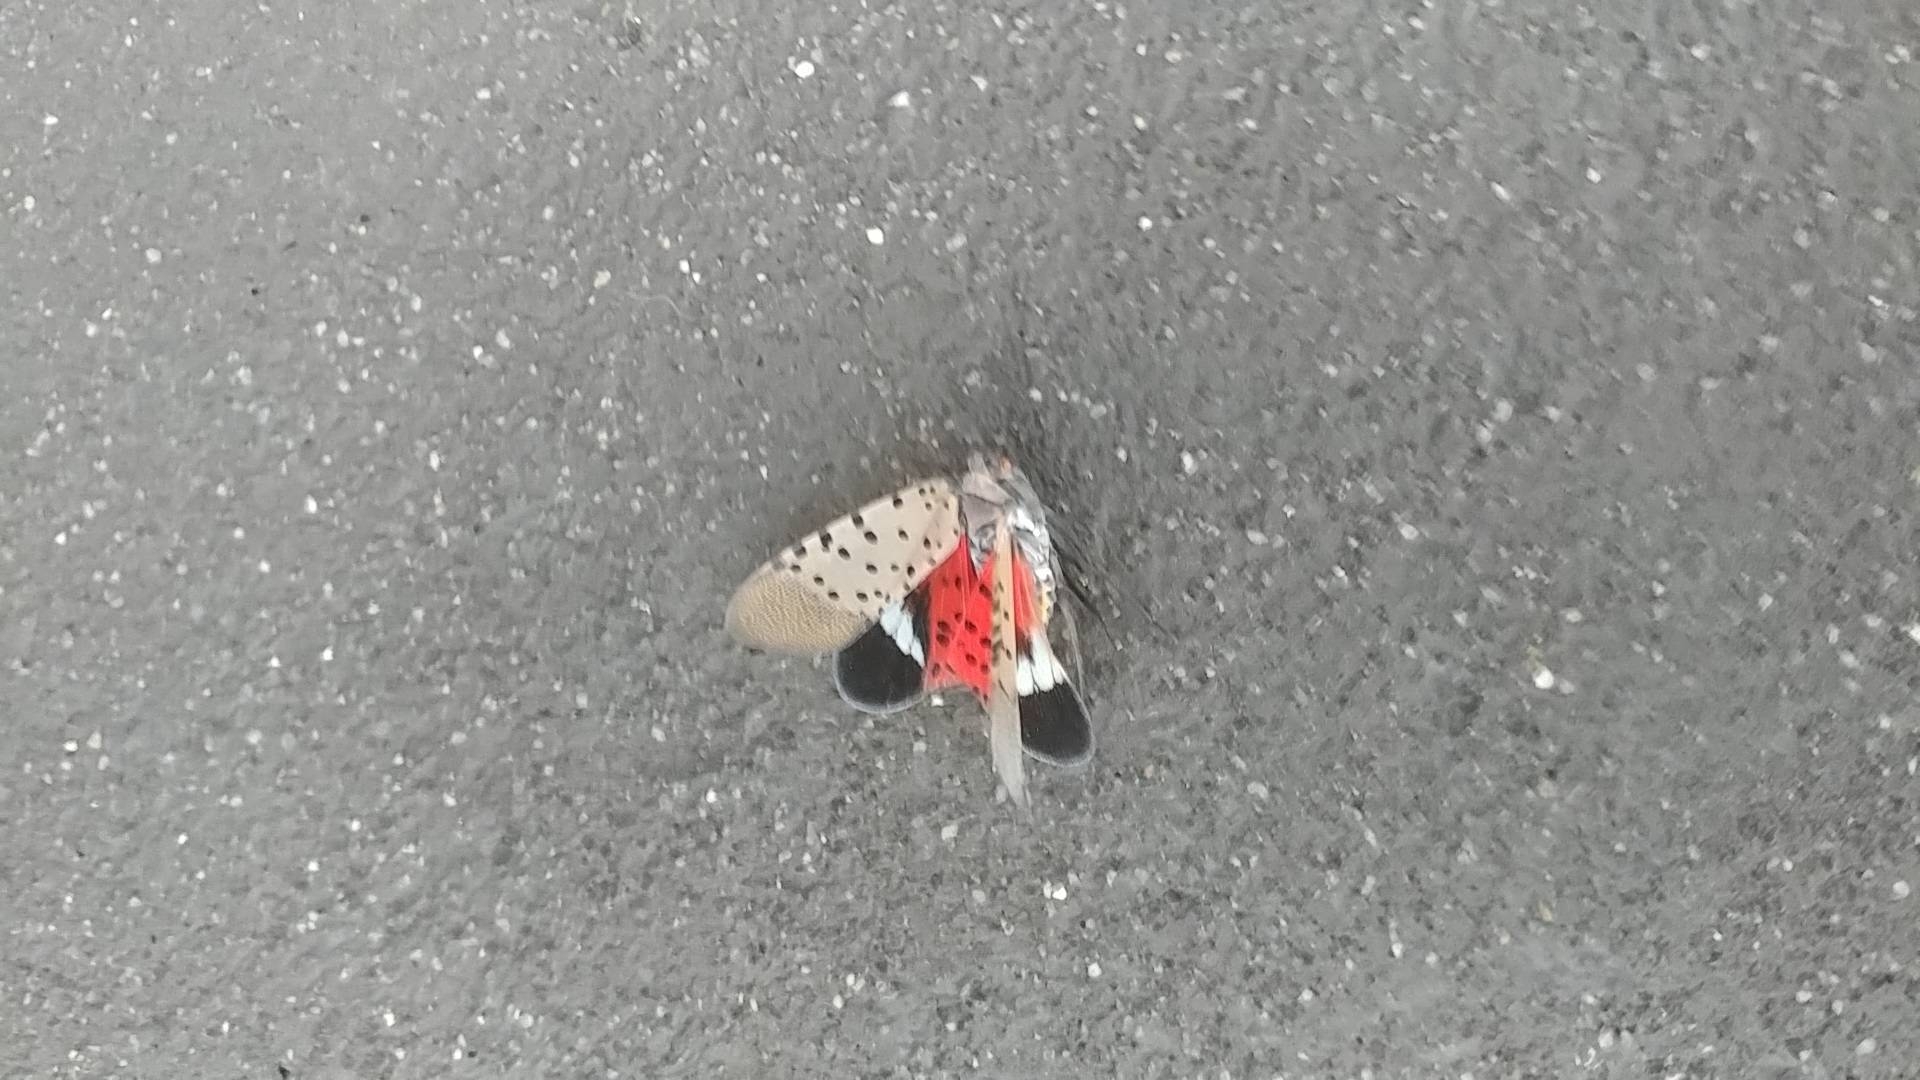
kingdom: Animalia
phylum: Arthropoda
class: Insecta
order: Hemiptera
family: Fulgoridae
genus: Lycorma
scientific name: Lycorma delicatula
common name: Spotted lanternfly
